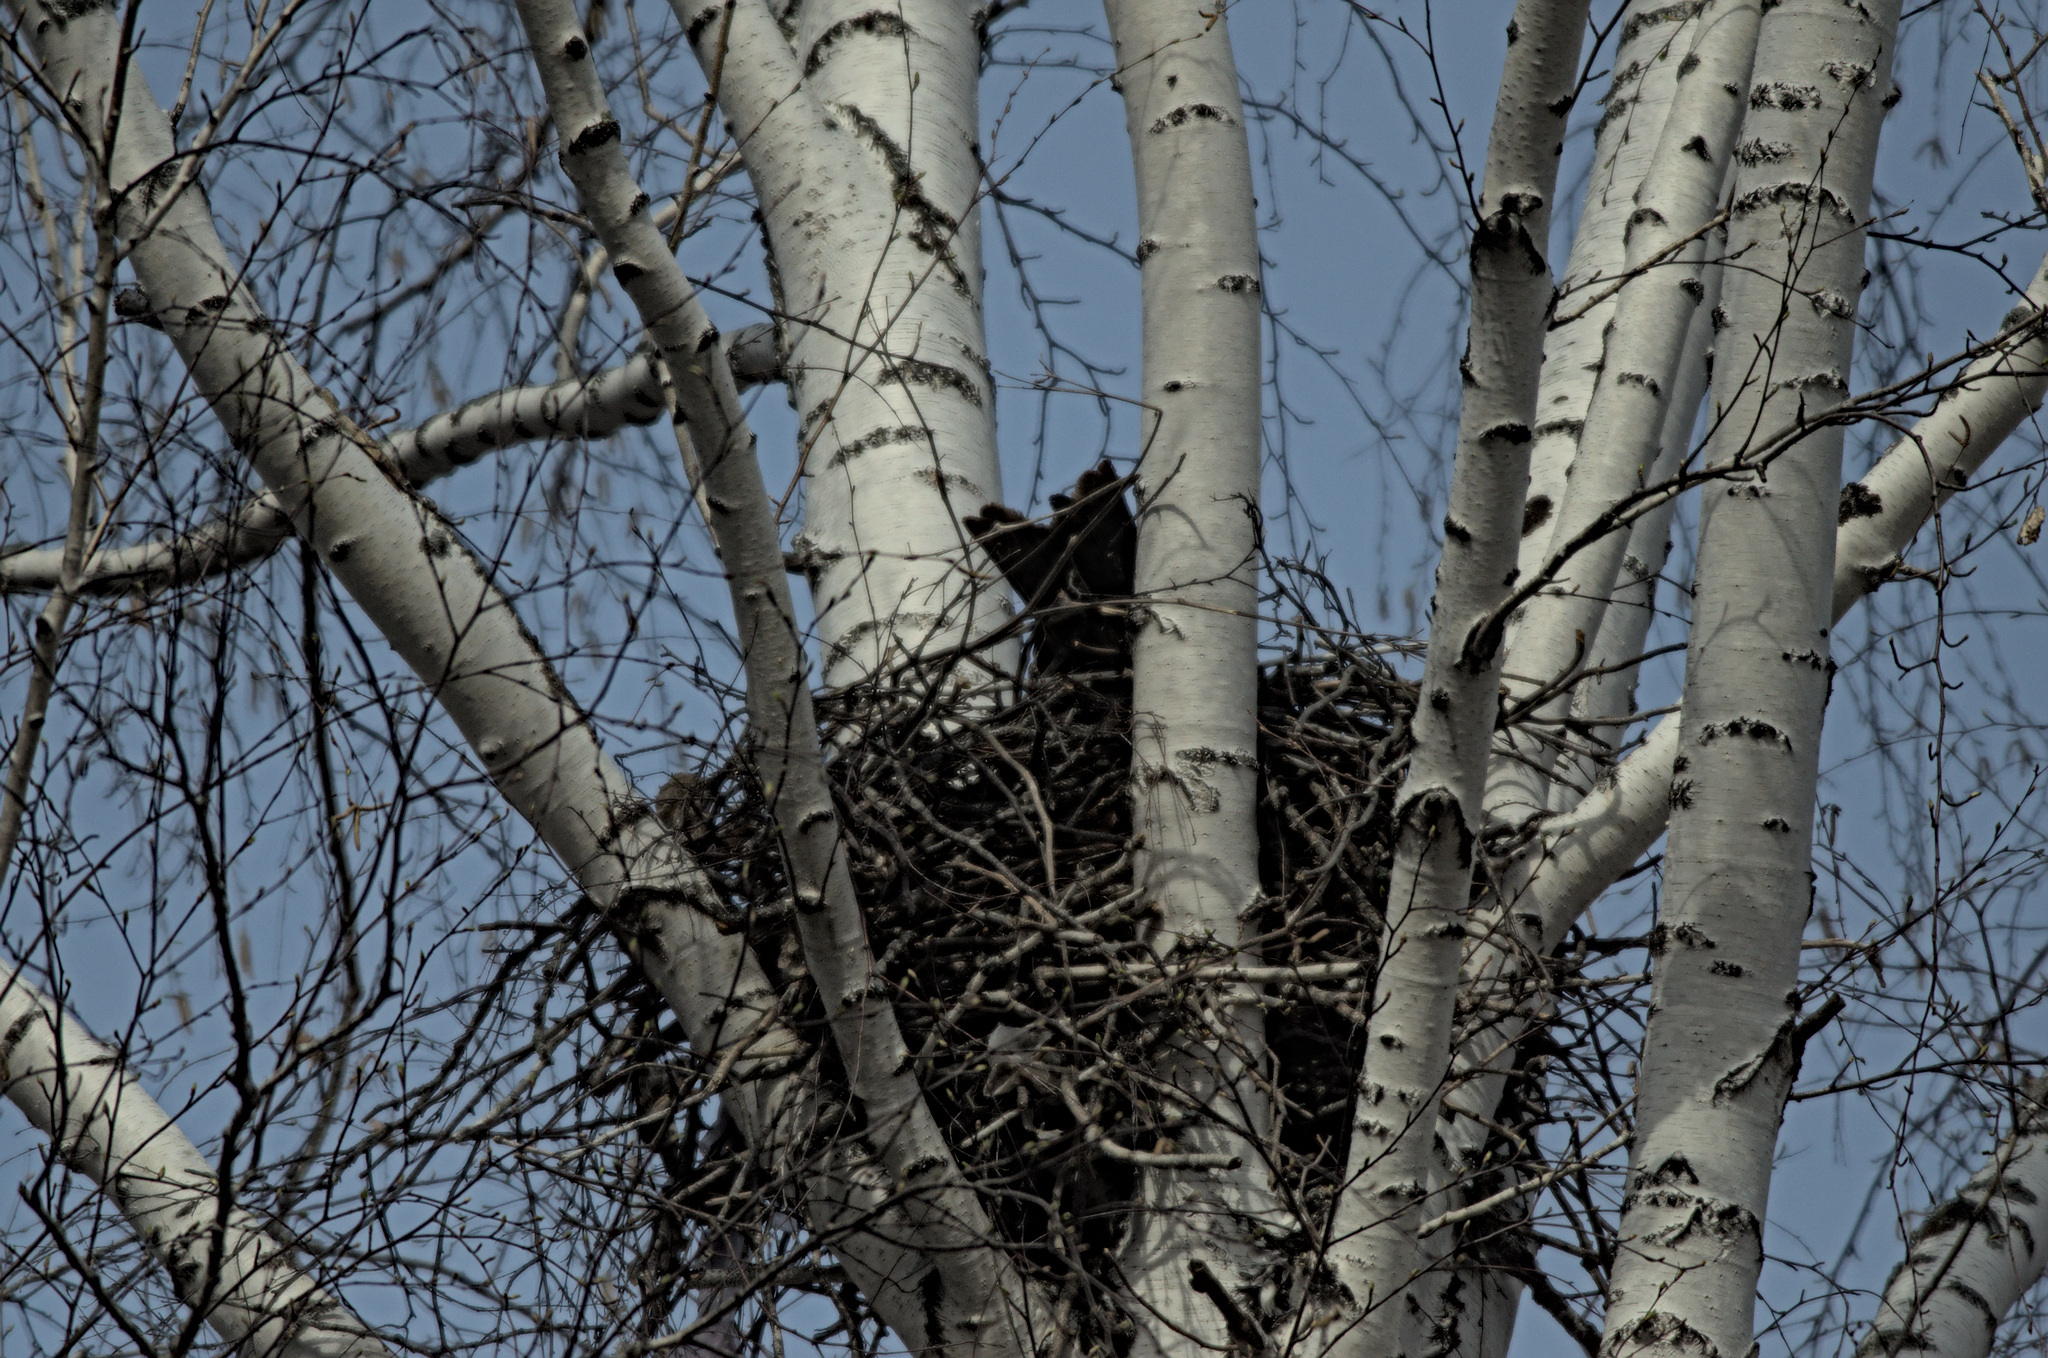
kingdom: Animalia
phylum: Chordata
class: Aves
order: Accipitriformes
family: Accipitridae
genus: Milvus
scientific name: Milvus migrans
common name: Black kite
